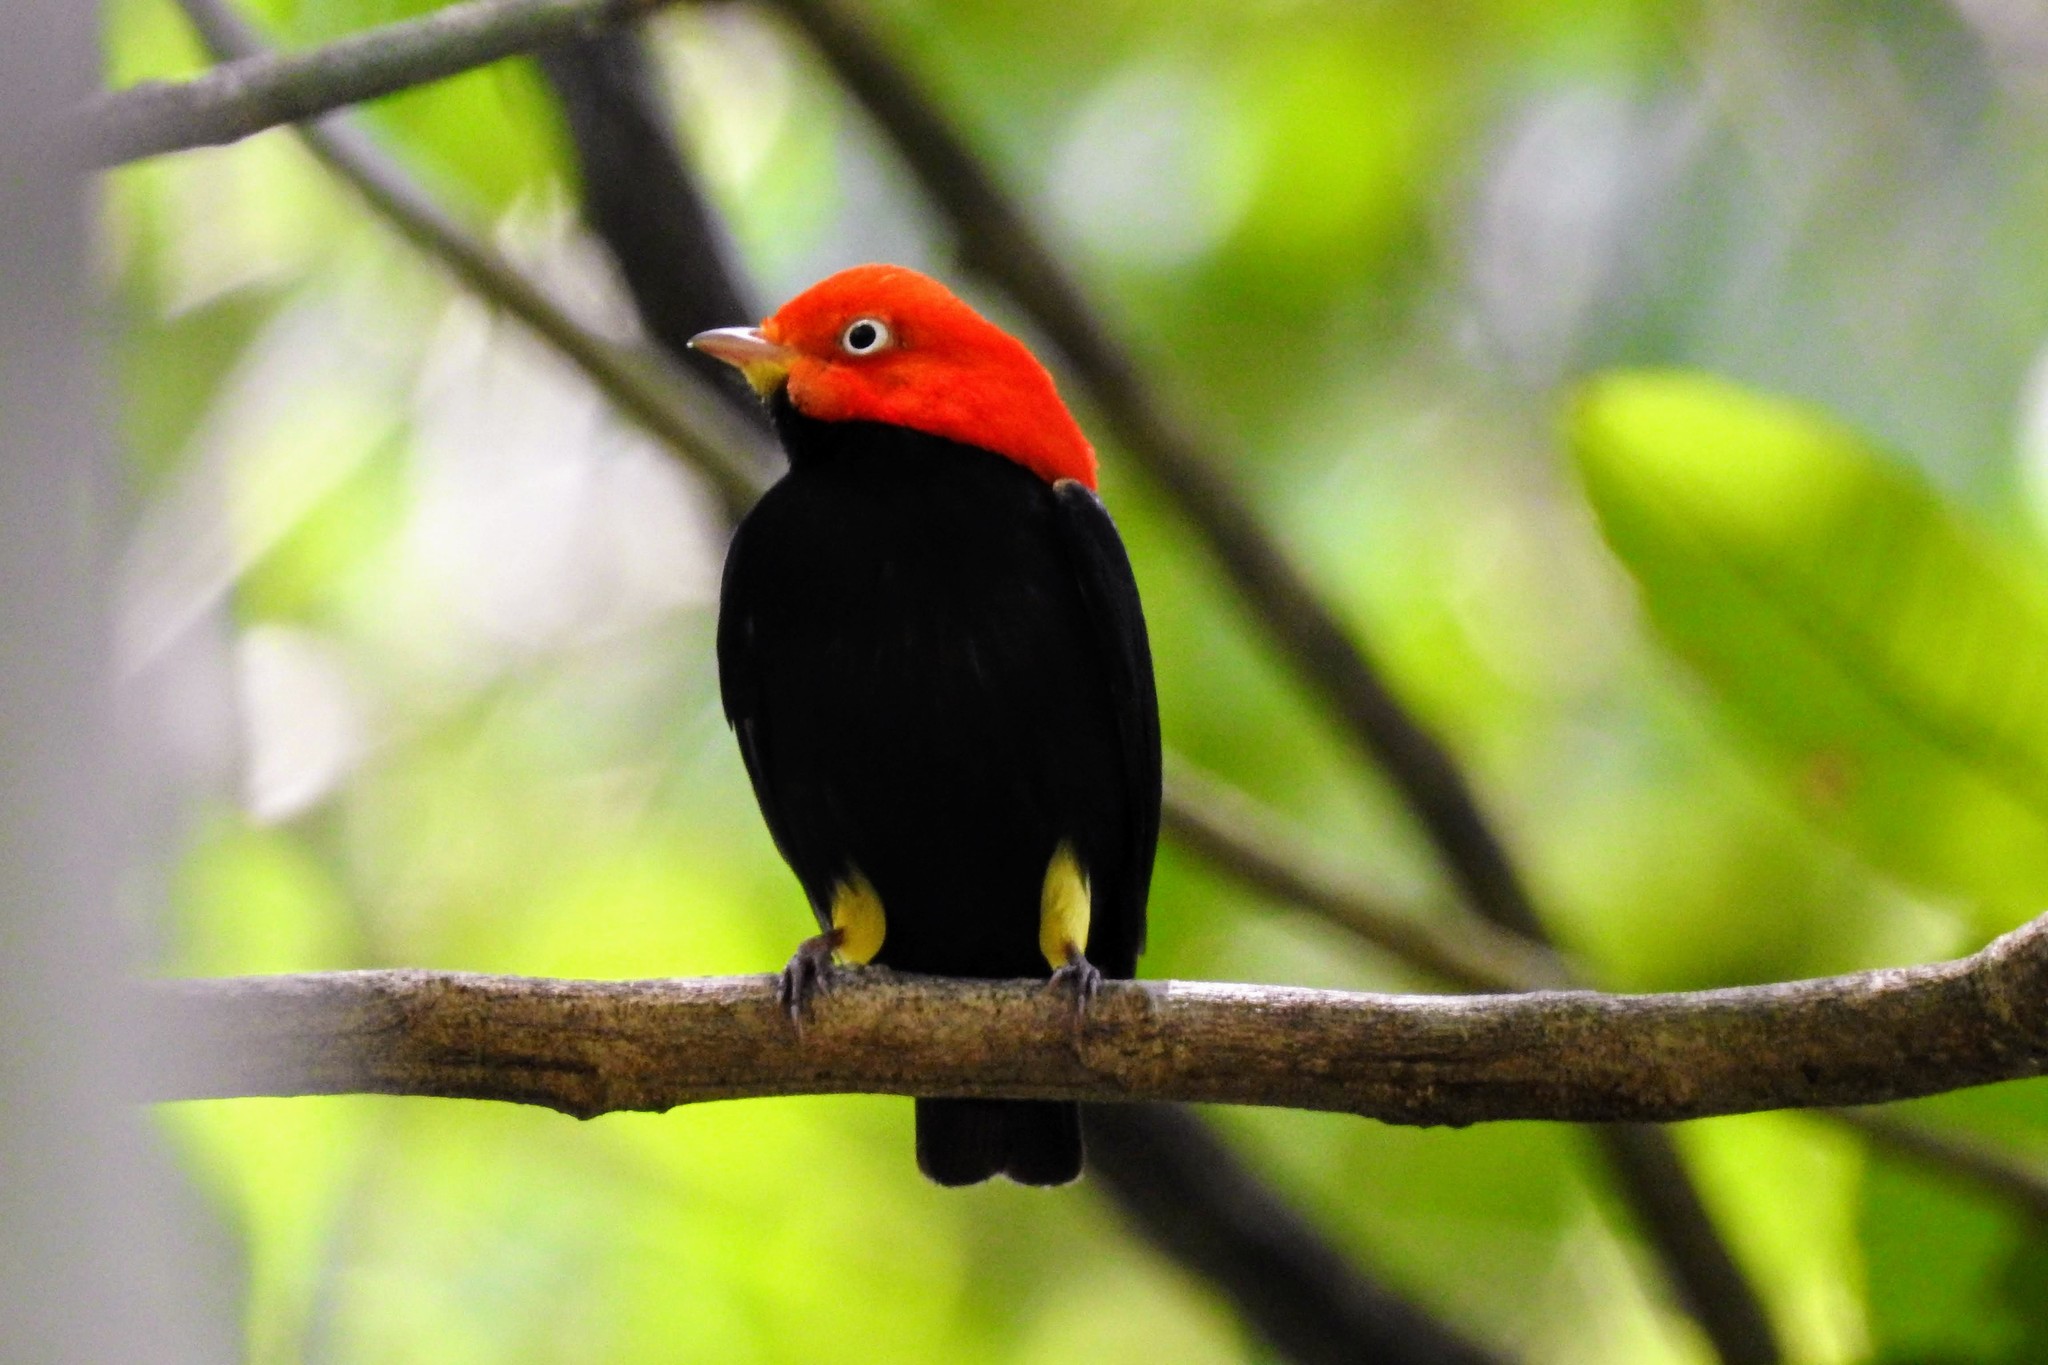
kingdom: Animalia
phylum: Chordata
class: Aves
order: Passeriformes
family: Pipridae
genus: Pipra
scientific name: Pipra mentalis
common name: Red-capped manakin
